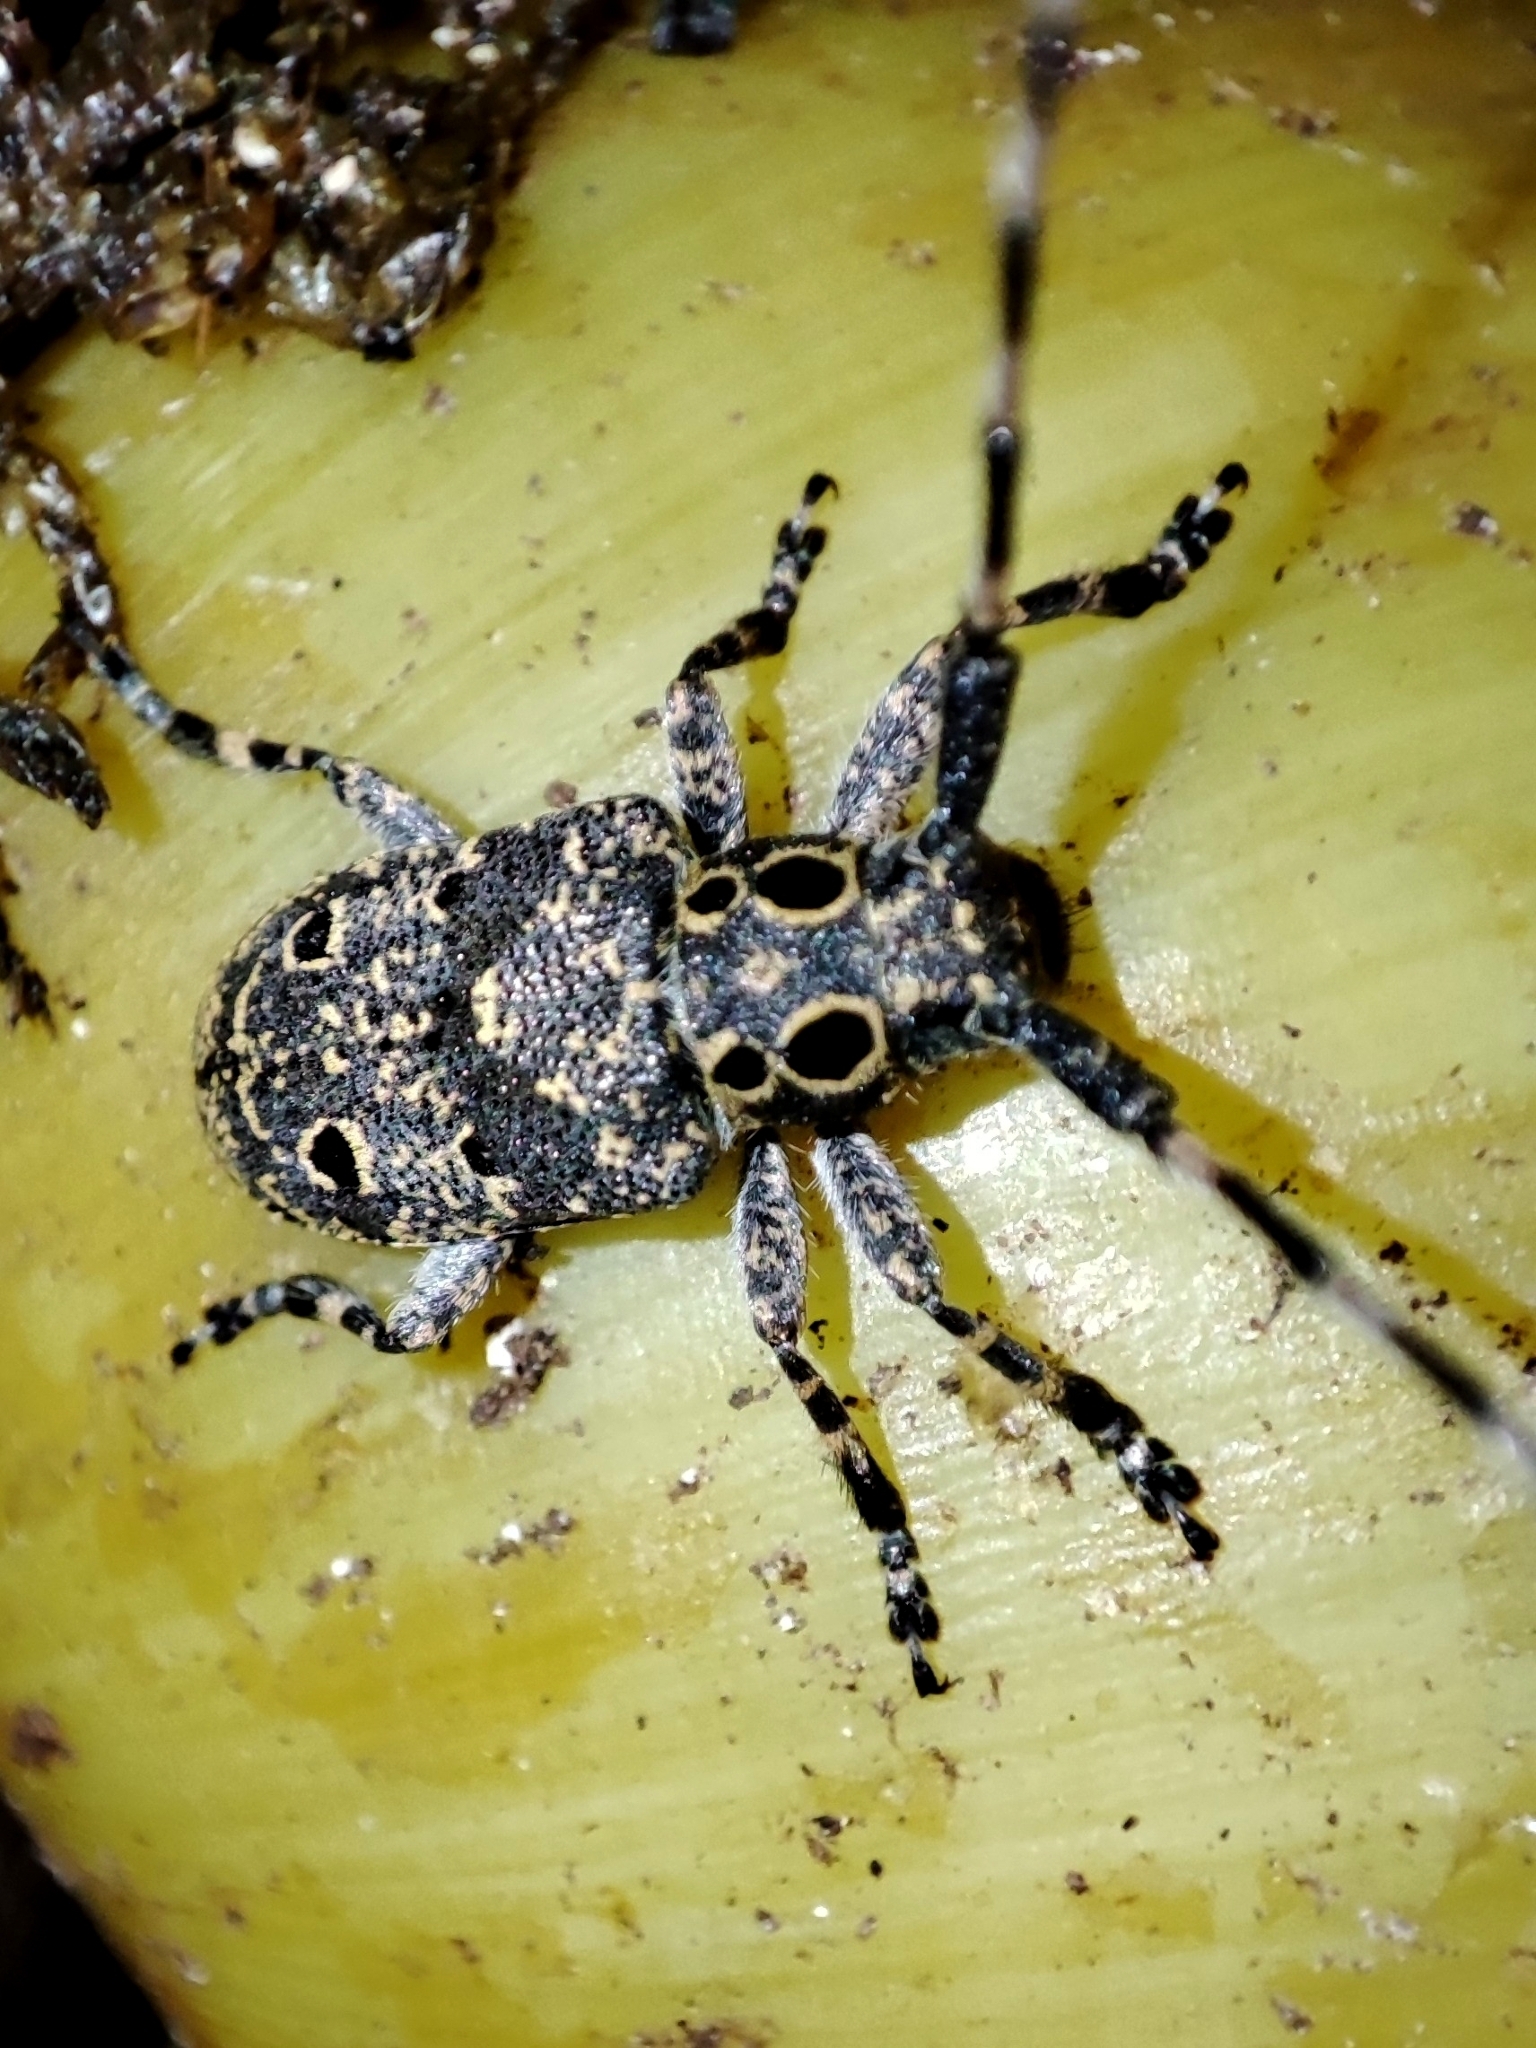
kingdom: Animalia
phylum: Arthropoda
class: Insecta
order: Coleoptera
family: Cerambycidae
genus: Mesosa
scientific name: Mesosa curculionoides
